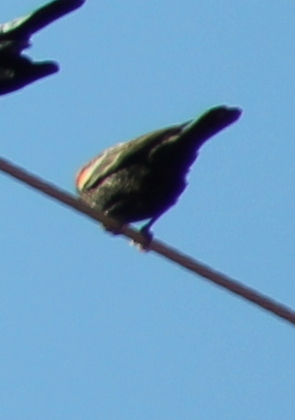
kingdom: Animalia
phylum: Chordata
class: Aves
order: Passeriformes
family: Icteridae
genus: Agelaius
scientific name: Agelaius phoeniceus
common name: Red-winged blackbird
